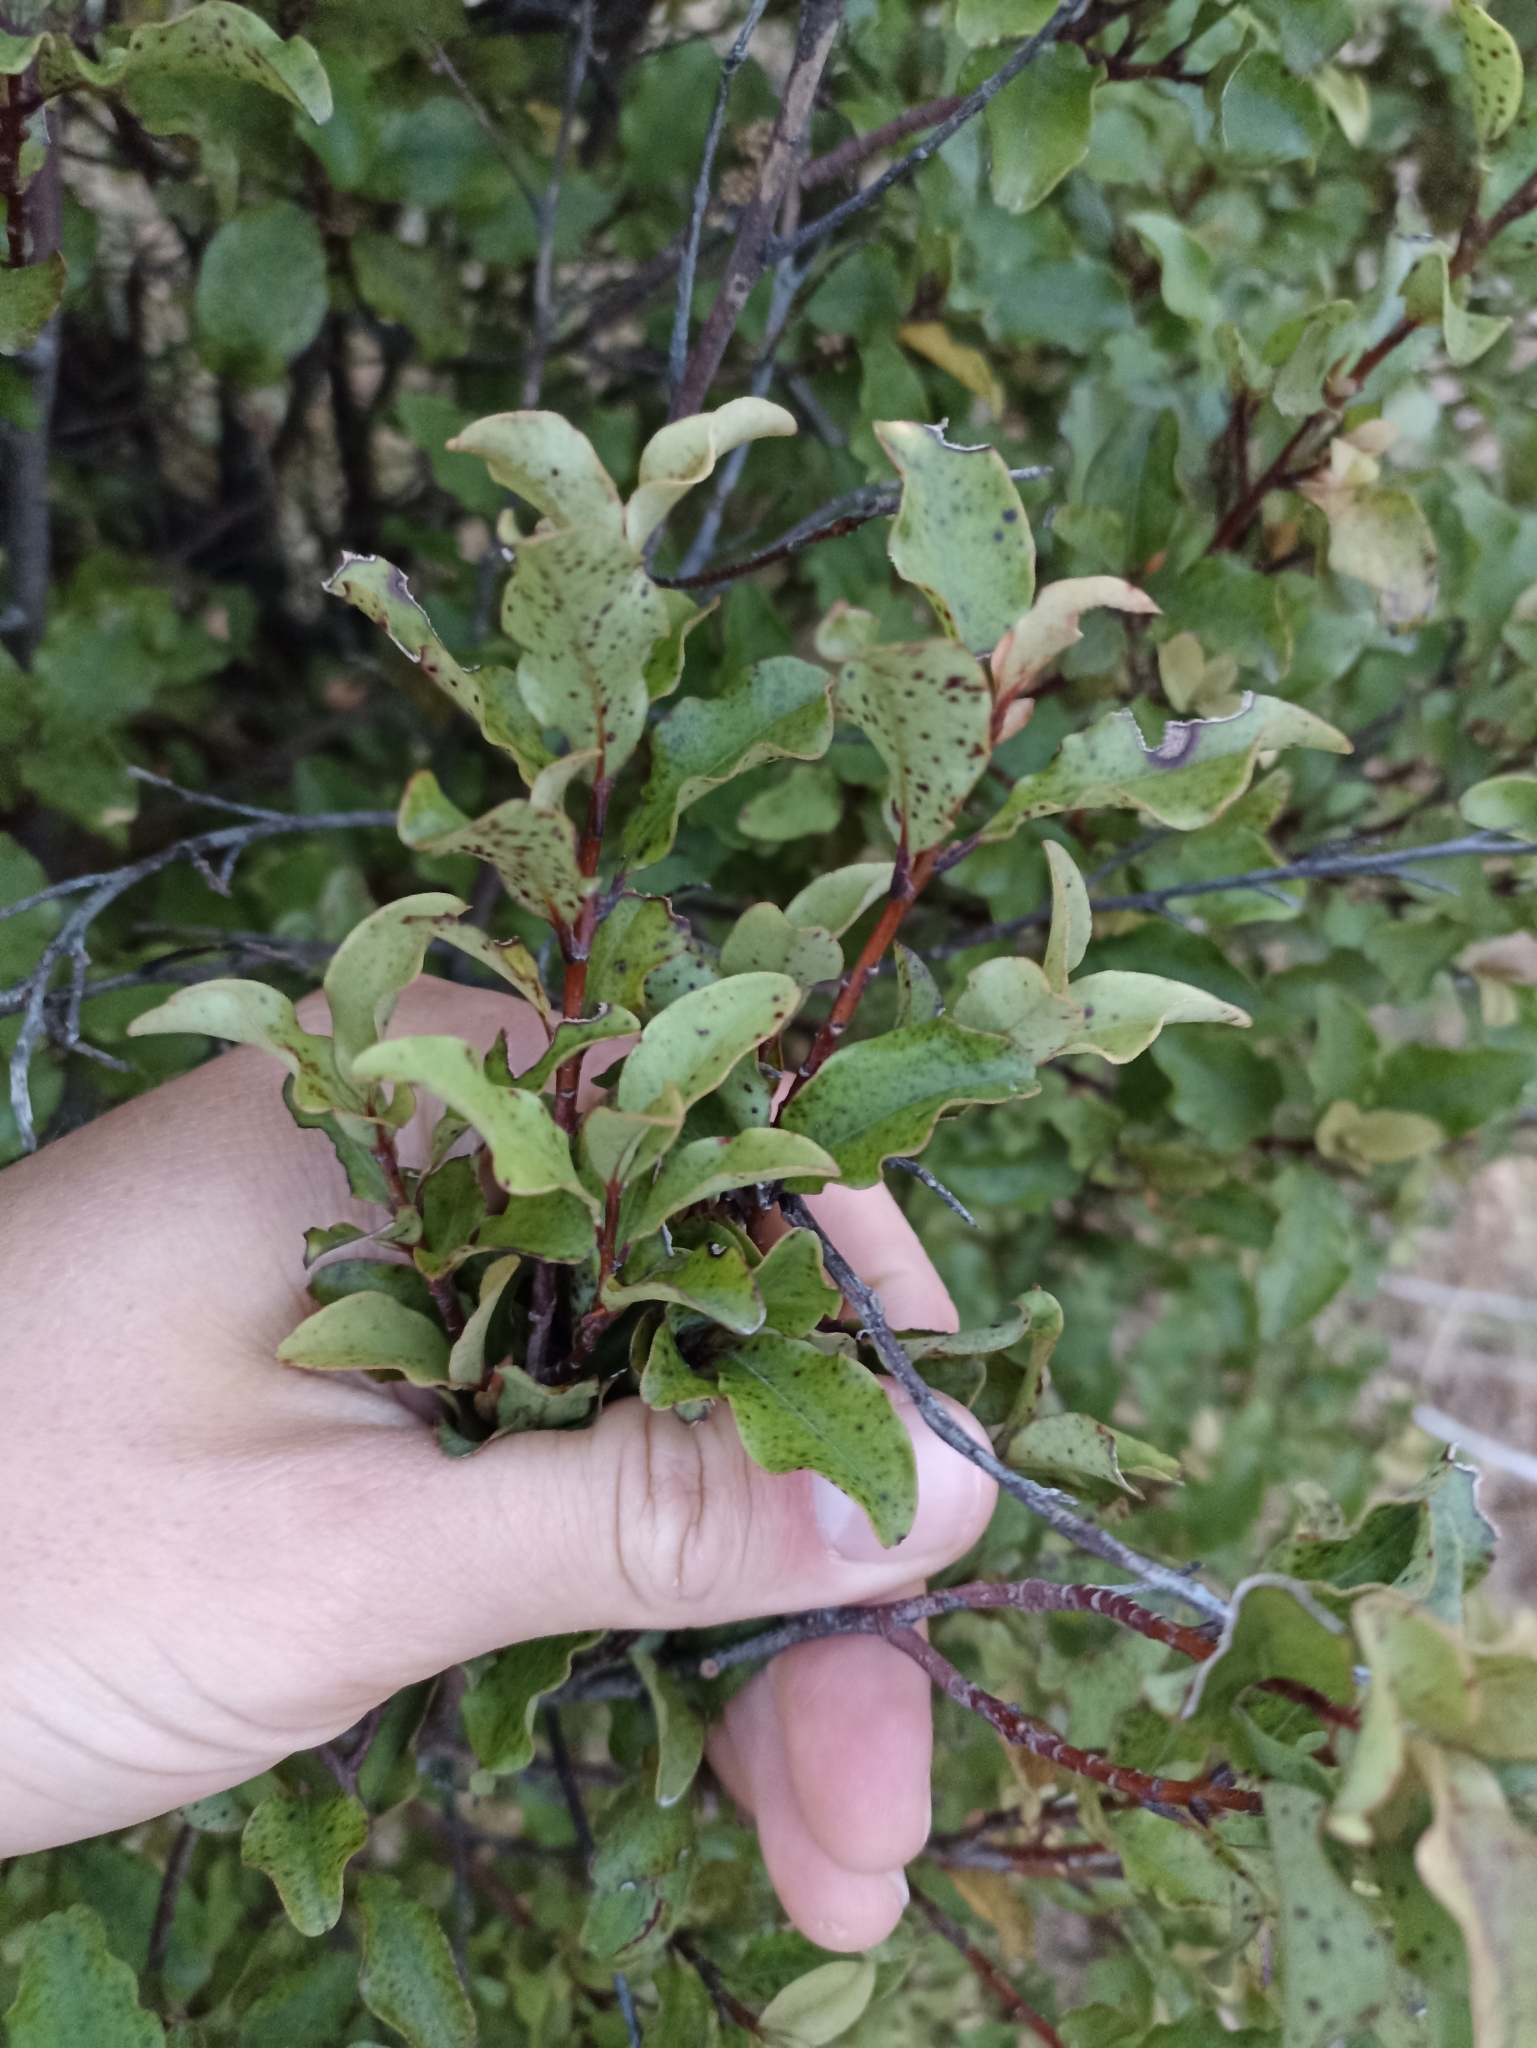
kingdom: Plantae
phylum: Tracheophyta
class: Magnoliopsida
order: Ericales
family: Primulaceae
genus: Myrsine
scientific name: Myrsine australis
